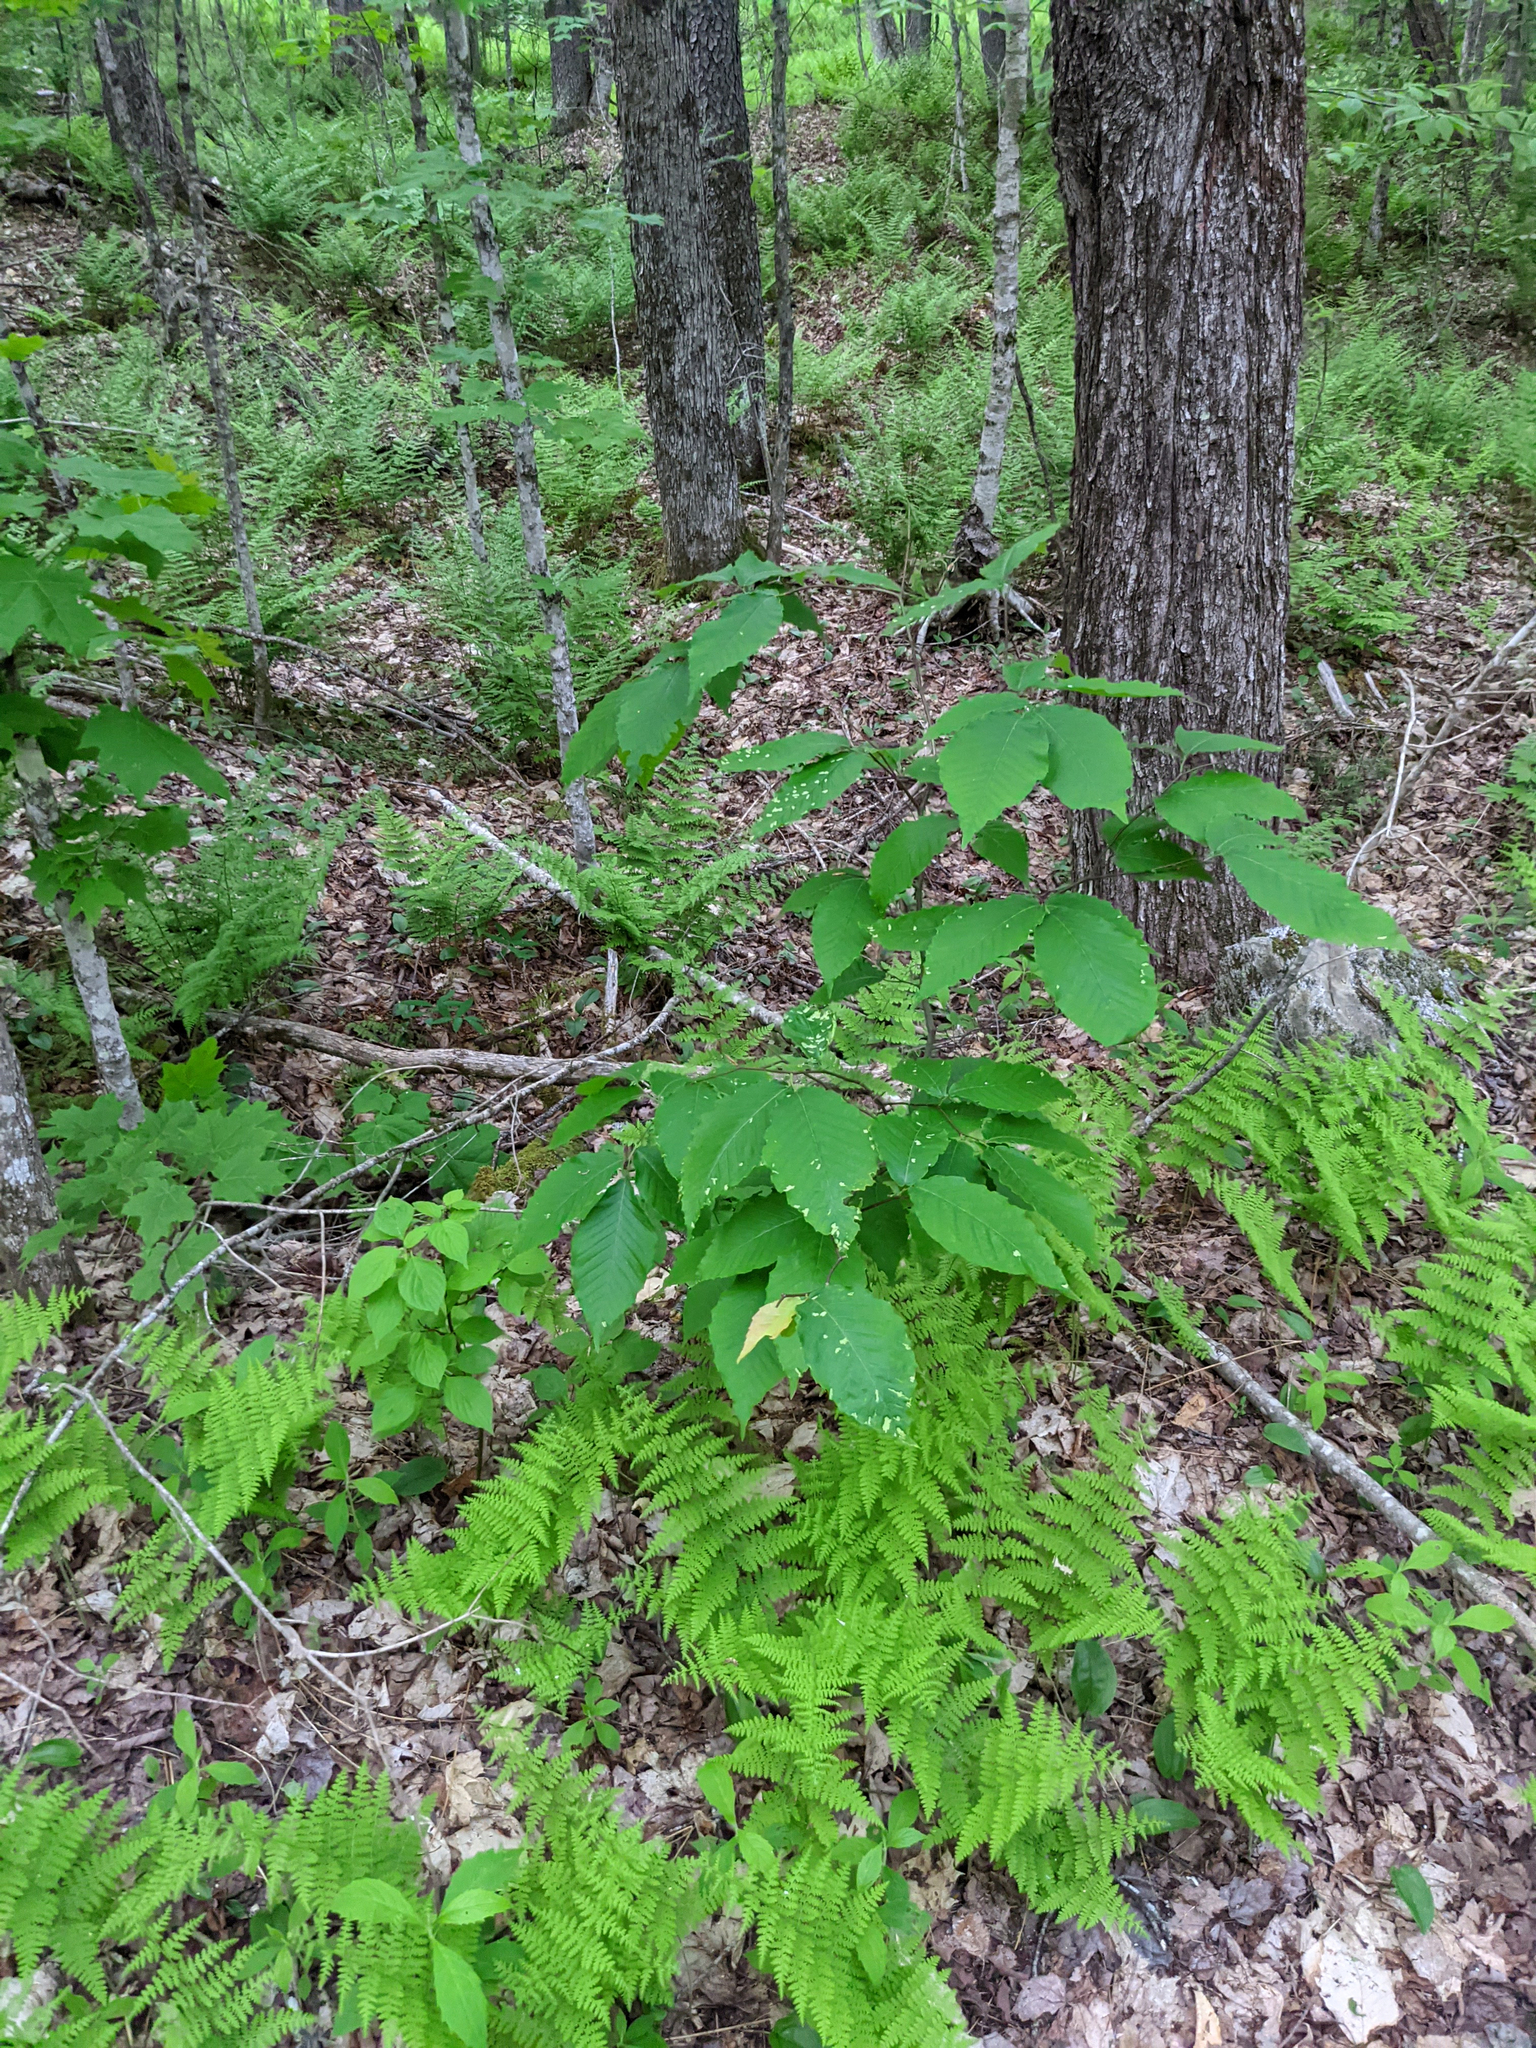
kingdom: Animalia
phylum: Arthropoda
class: Arachnida
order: Trombidiformes
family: Eriophyidae
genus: Acalitus
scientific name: Acalitus
